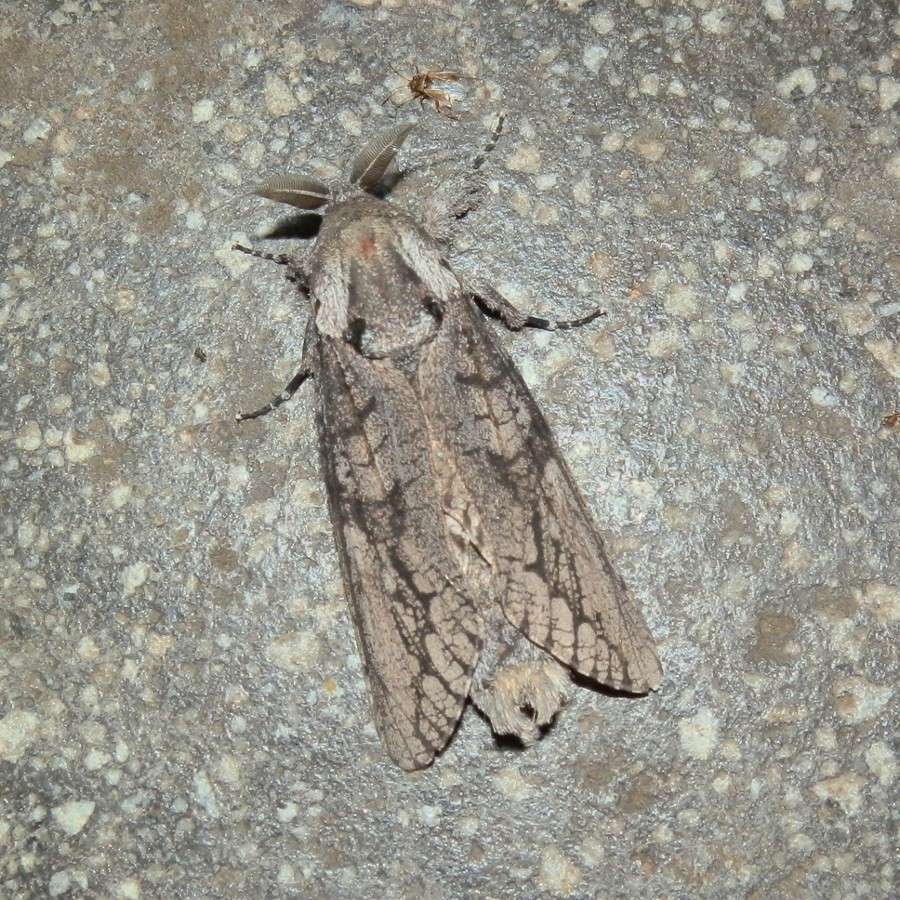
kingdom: Animalia
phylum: Arthropoda
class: Insecta
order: Lepidoptera
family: Cossidae
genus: Endoxyla
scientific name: Endoxyla lichenea
